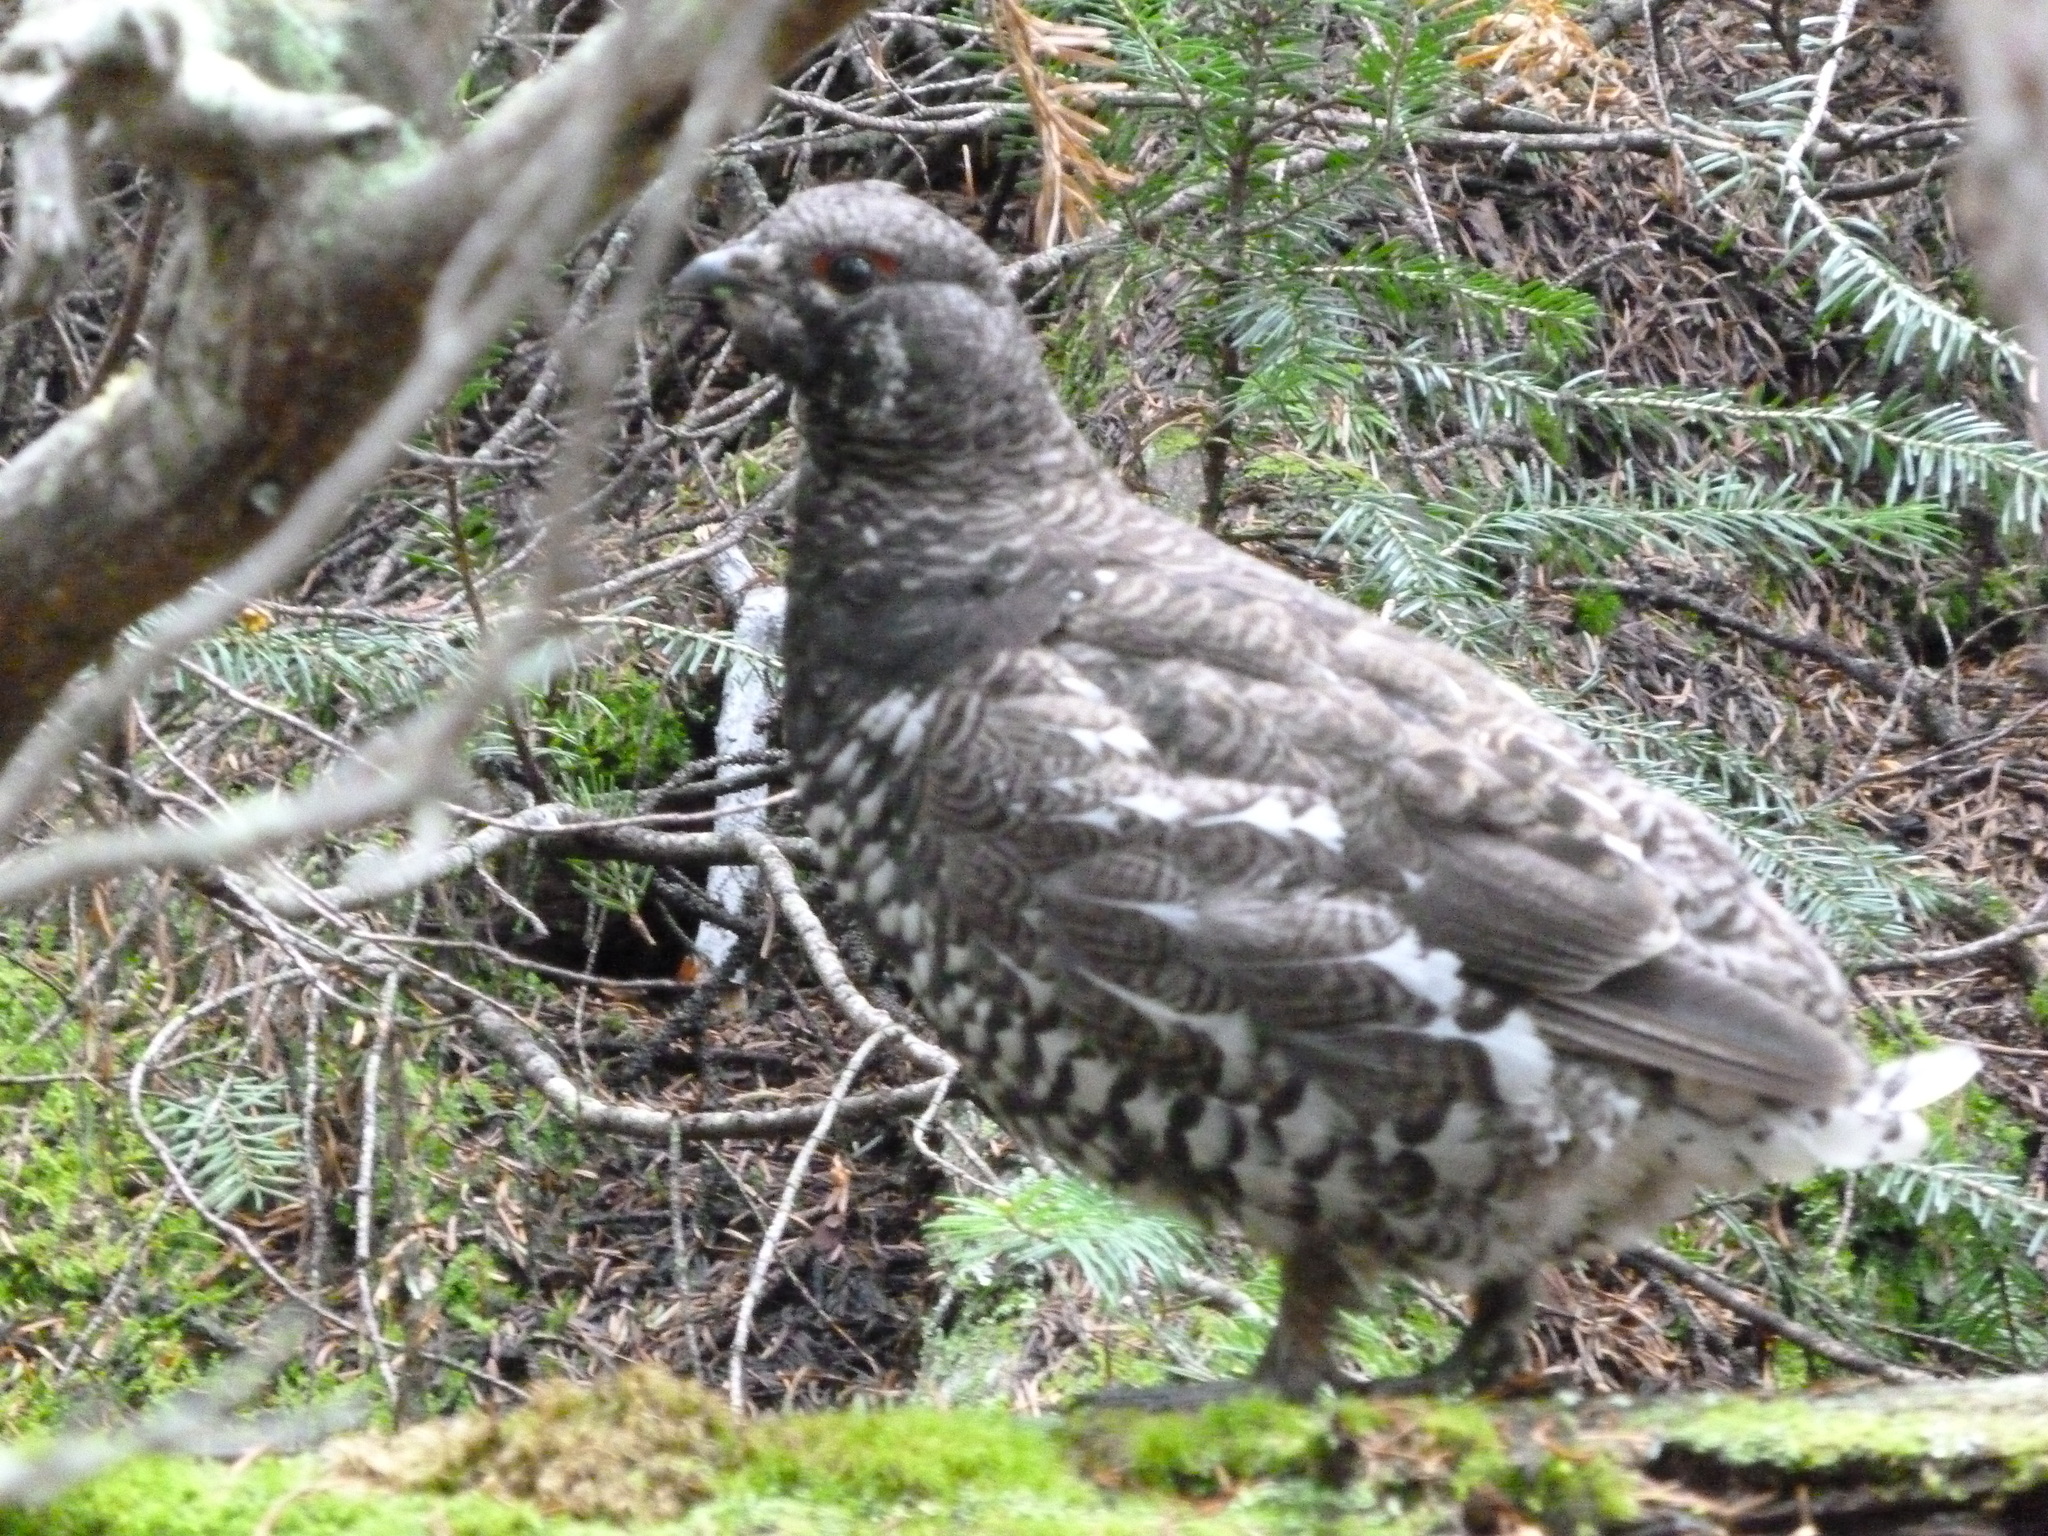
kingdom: Animalia
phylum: Chordata
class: Aves
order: Galliformes
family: Phasianidae
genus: Canachites
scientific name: Canachites canadensis
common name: Spruce grouse
